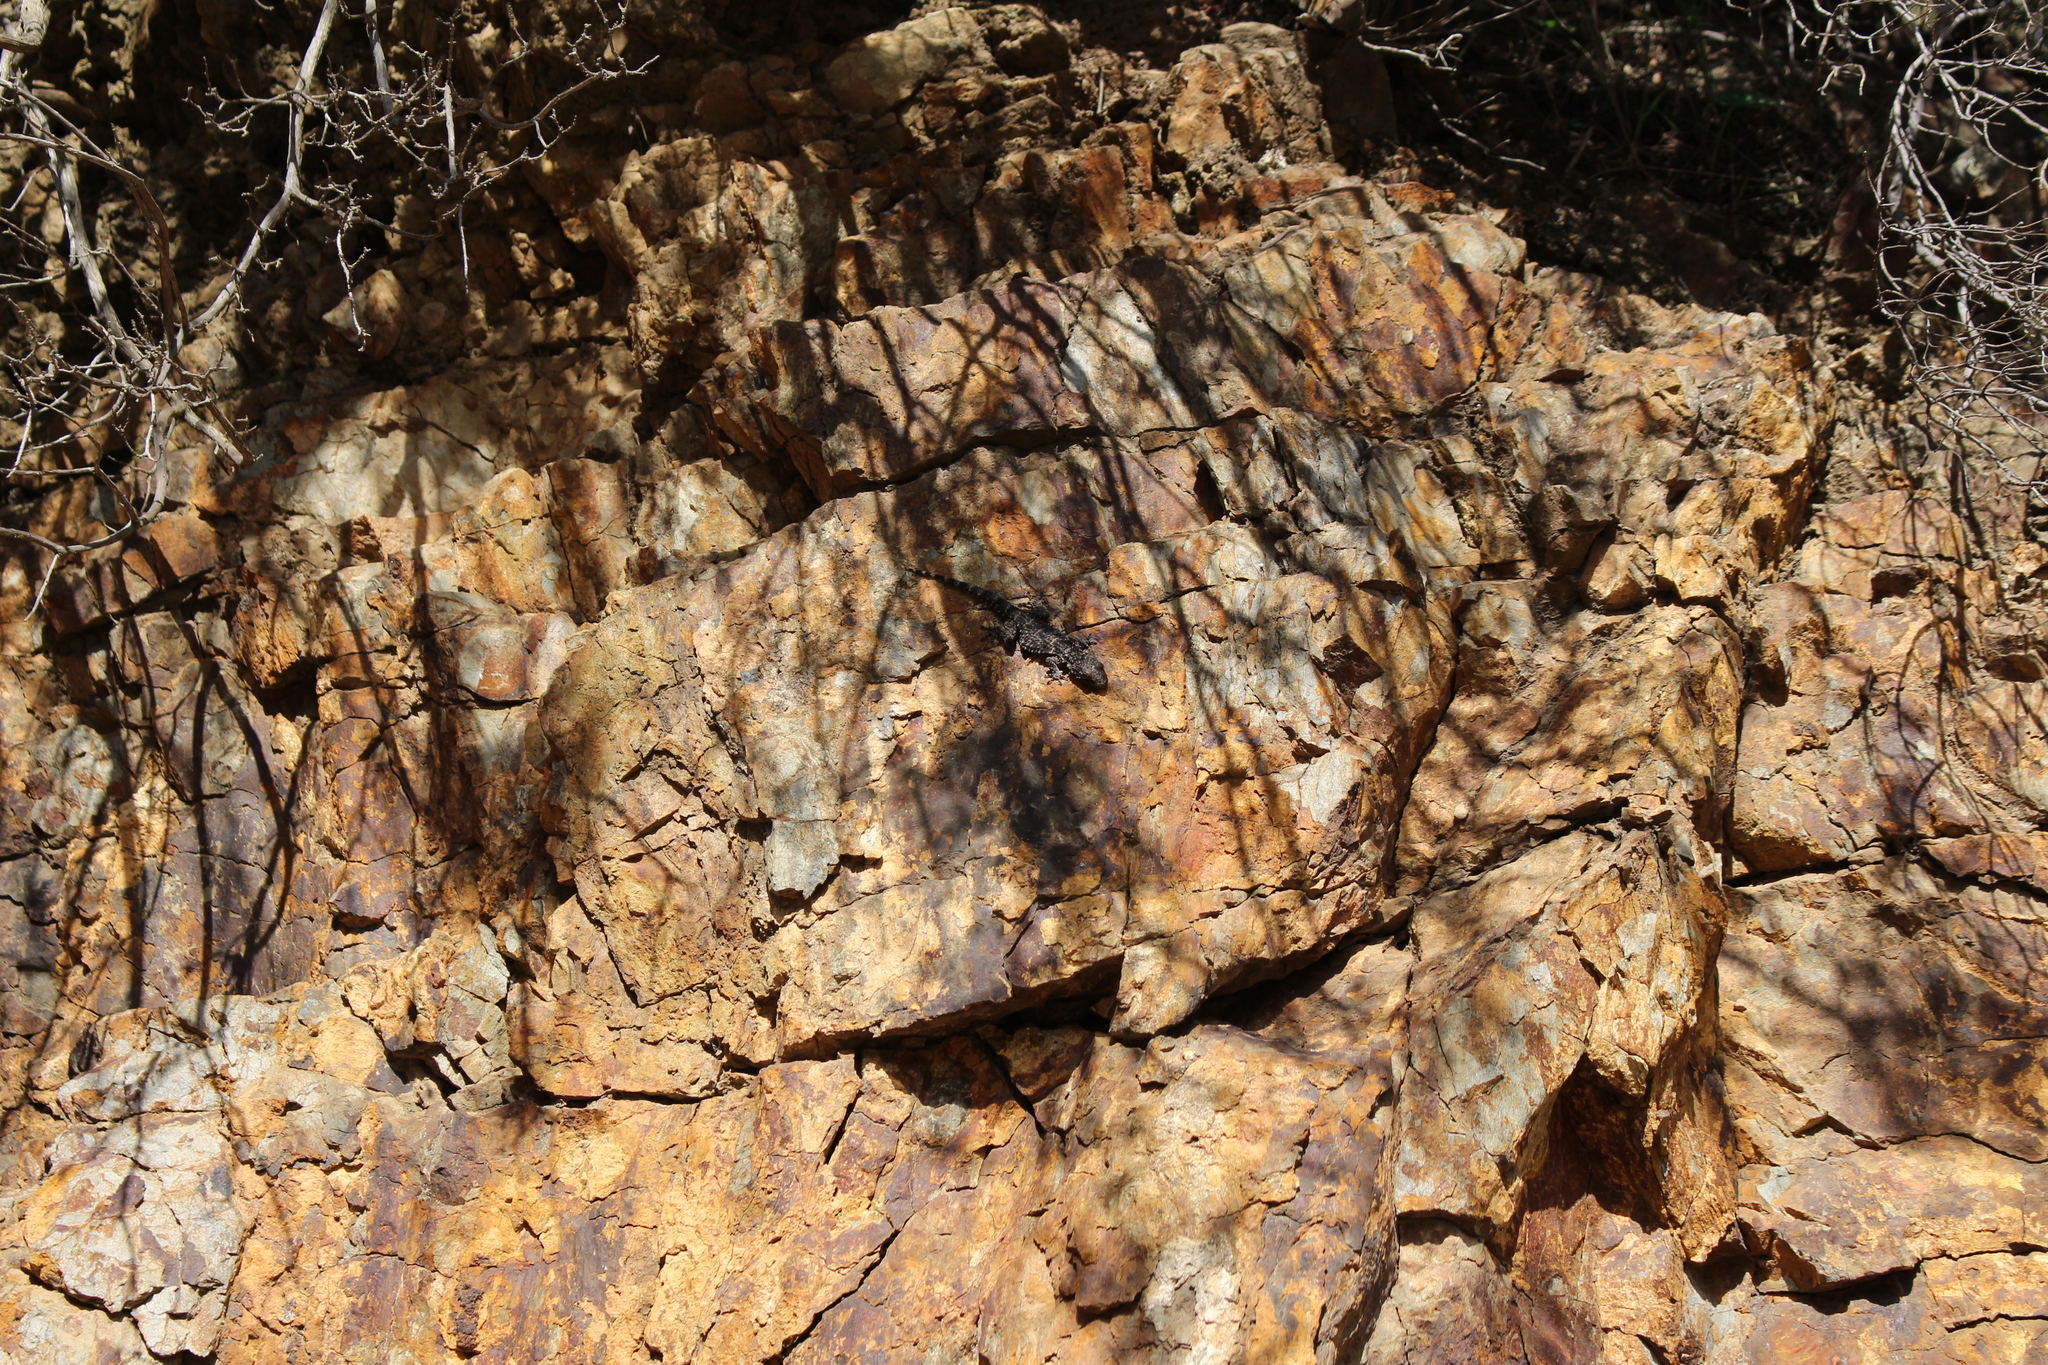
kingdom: Animalia
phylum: Chordata
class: Squamata
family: Phyllodactylidae
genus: Tarentola
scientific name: Tarentola mauritanica
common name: Moorish gecko
